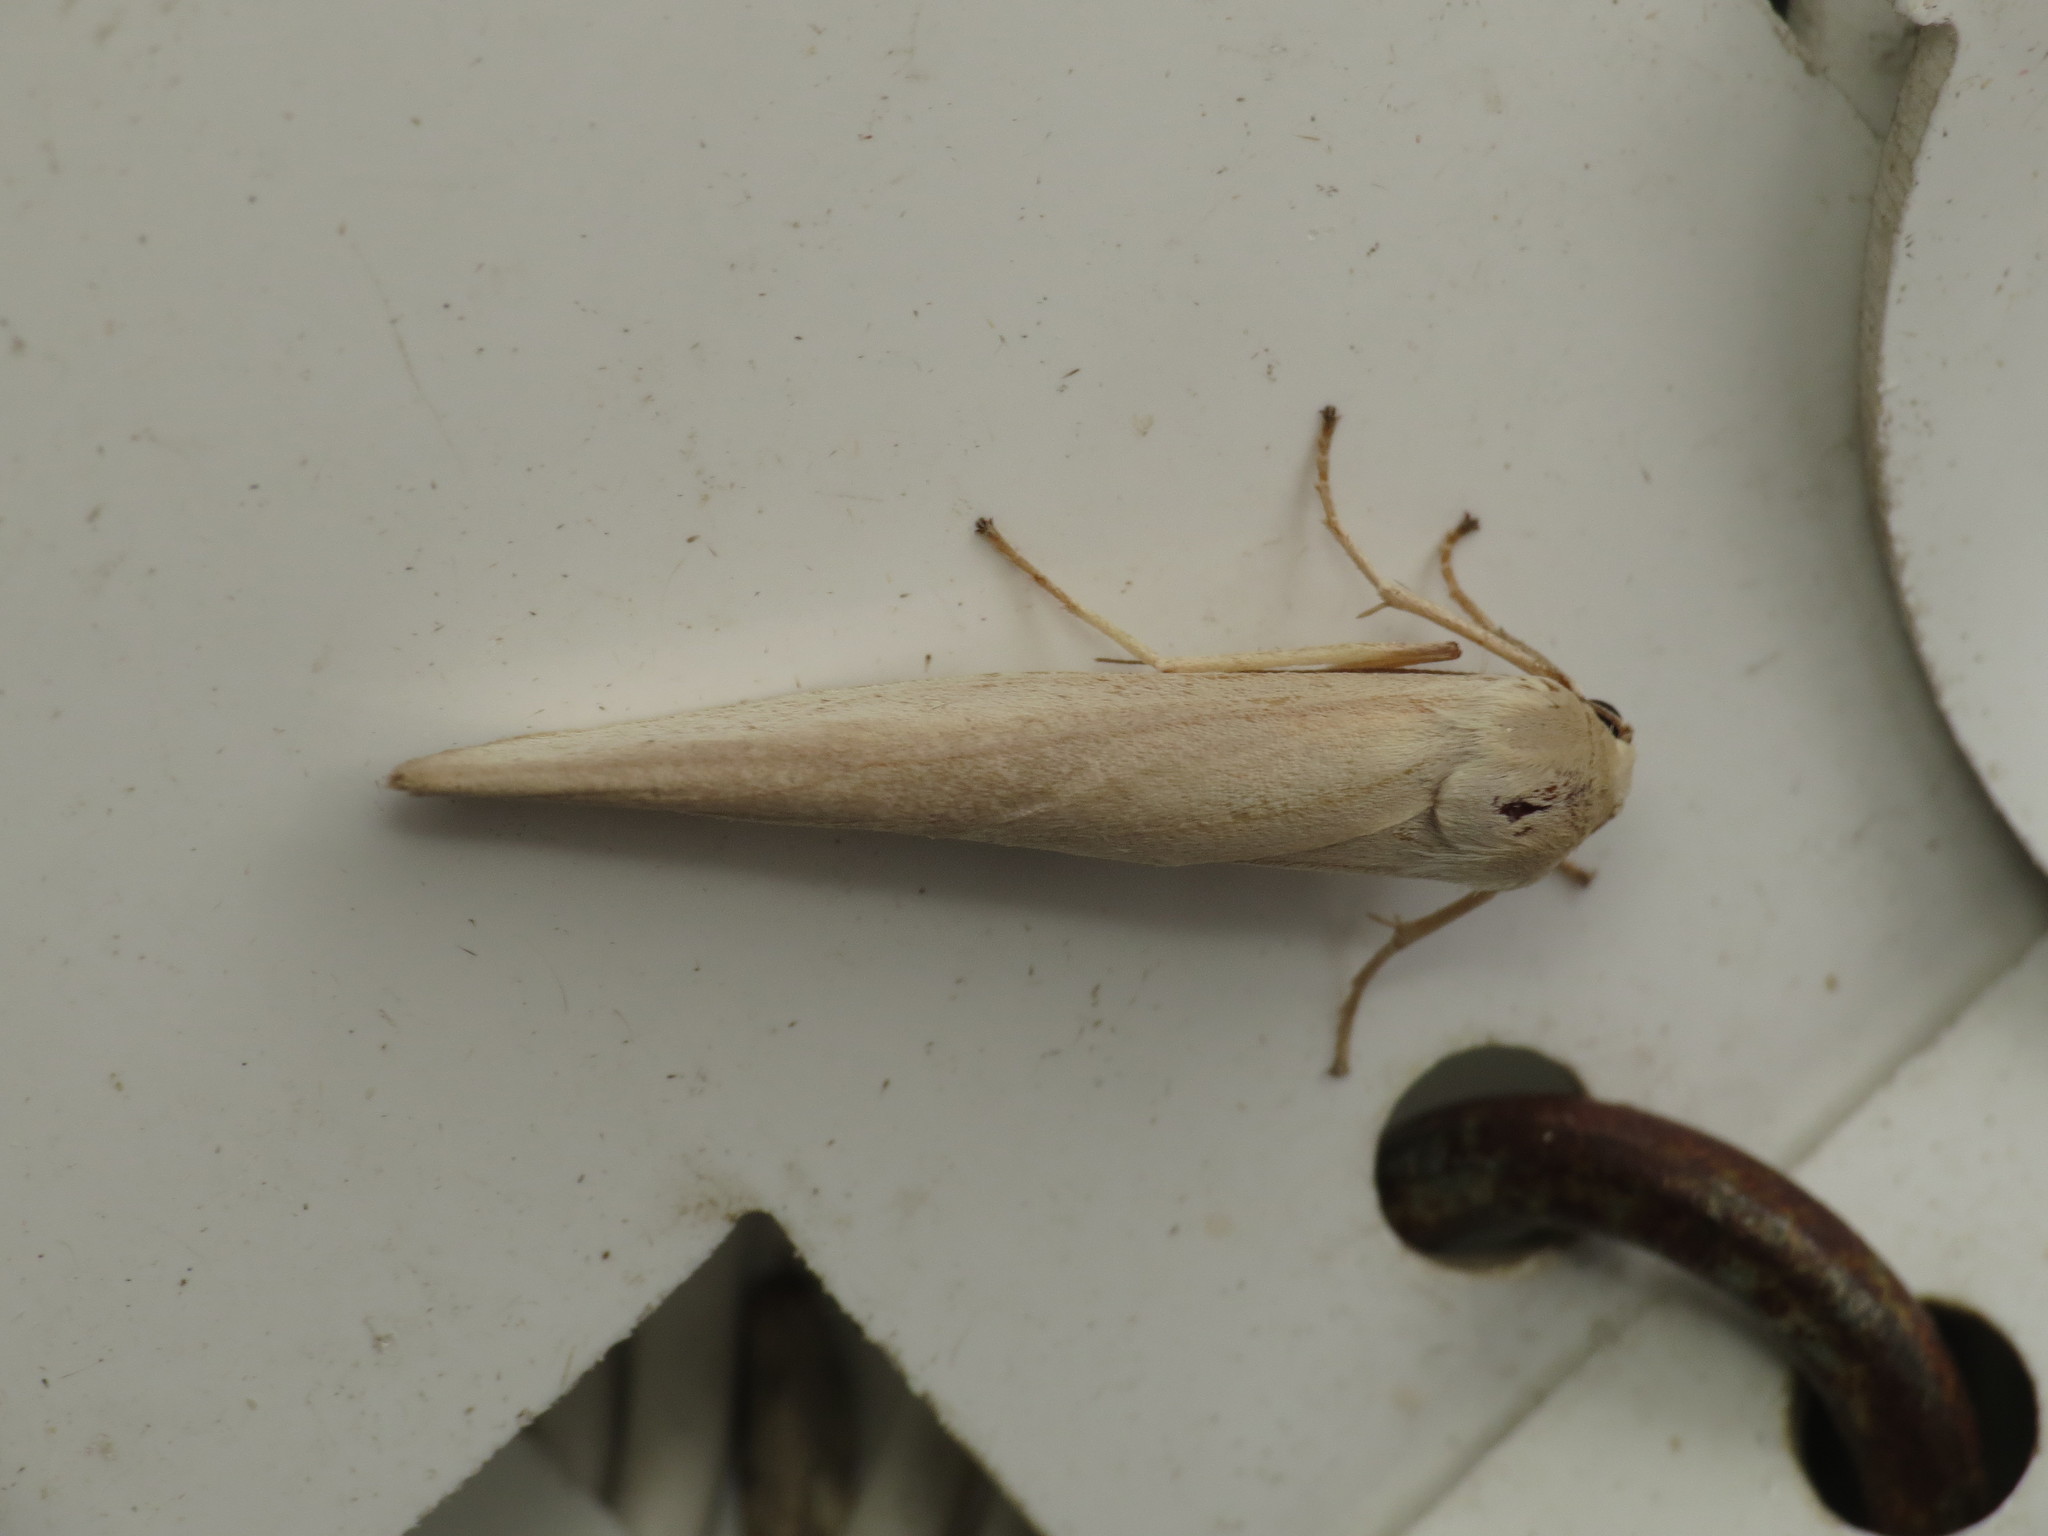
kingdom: Animalia
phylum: Arthropoda
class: Insecta
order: Lepidoptera
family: Erebidae
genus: Calamidia
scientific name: Calamidia hirta
